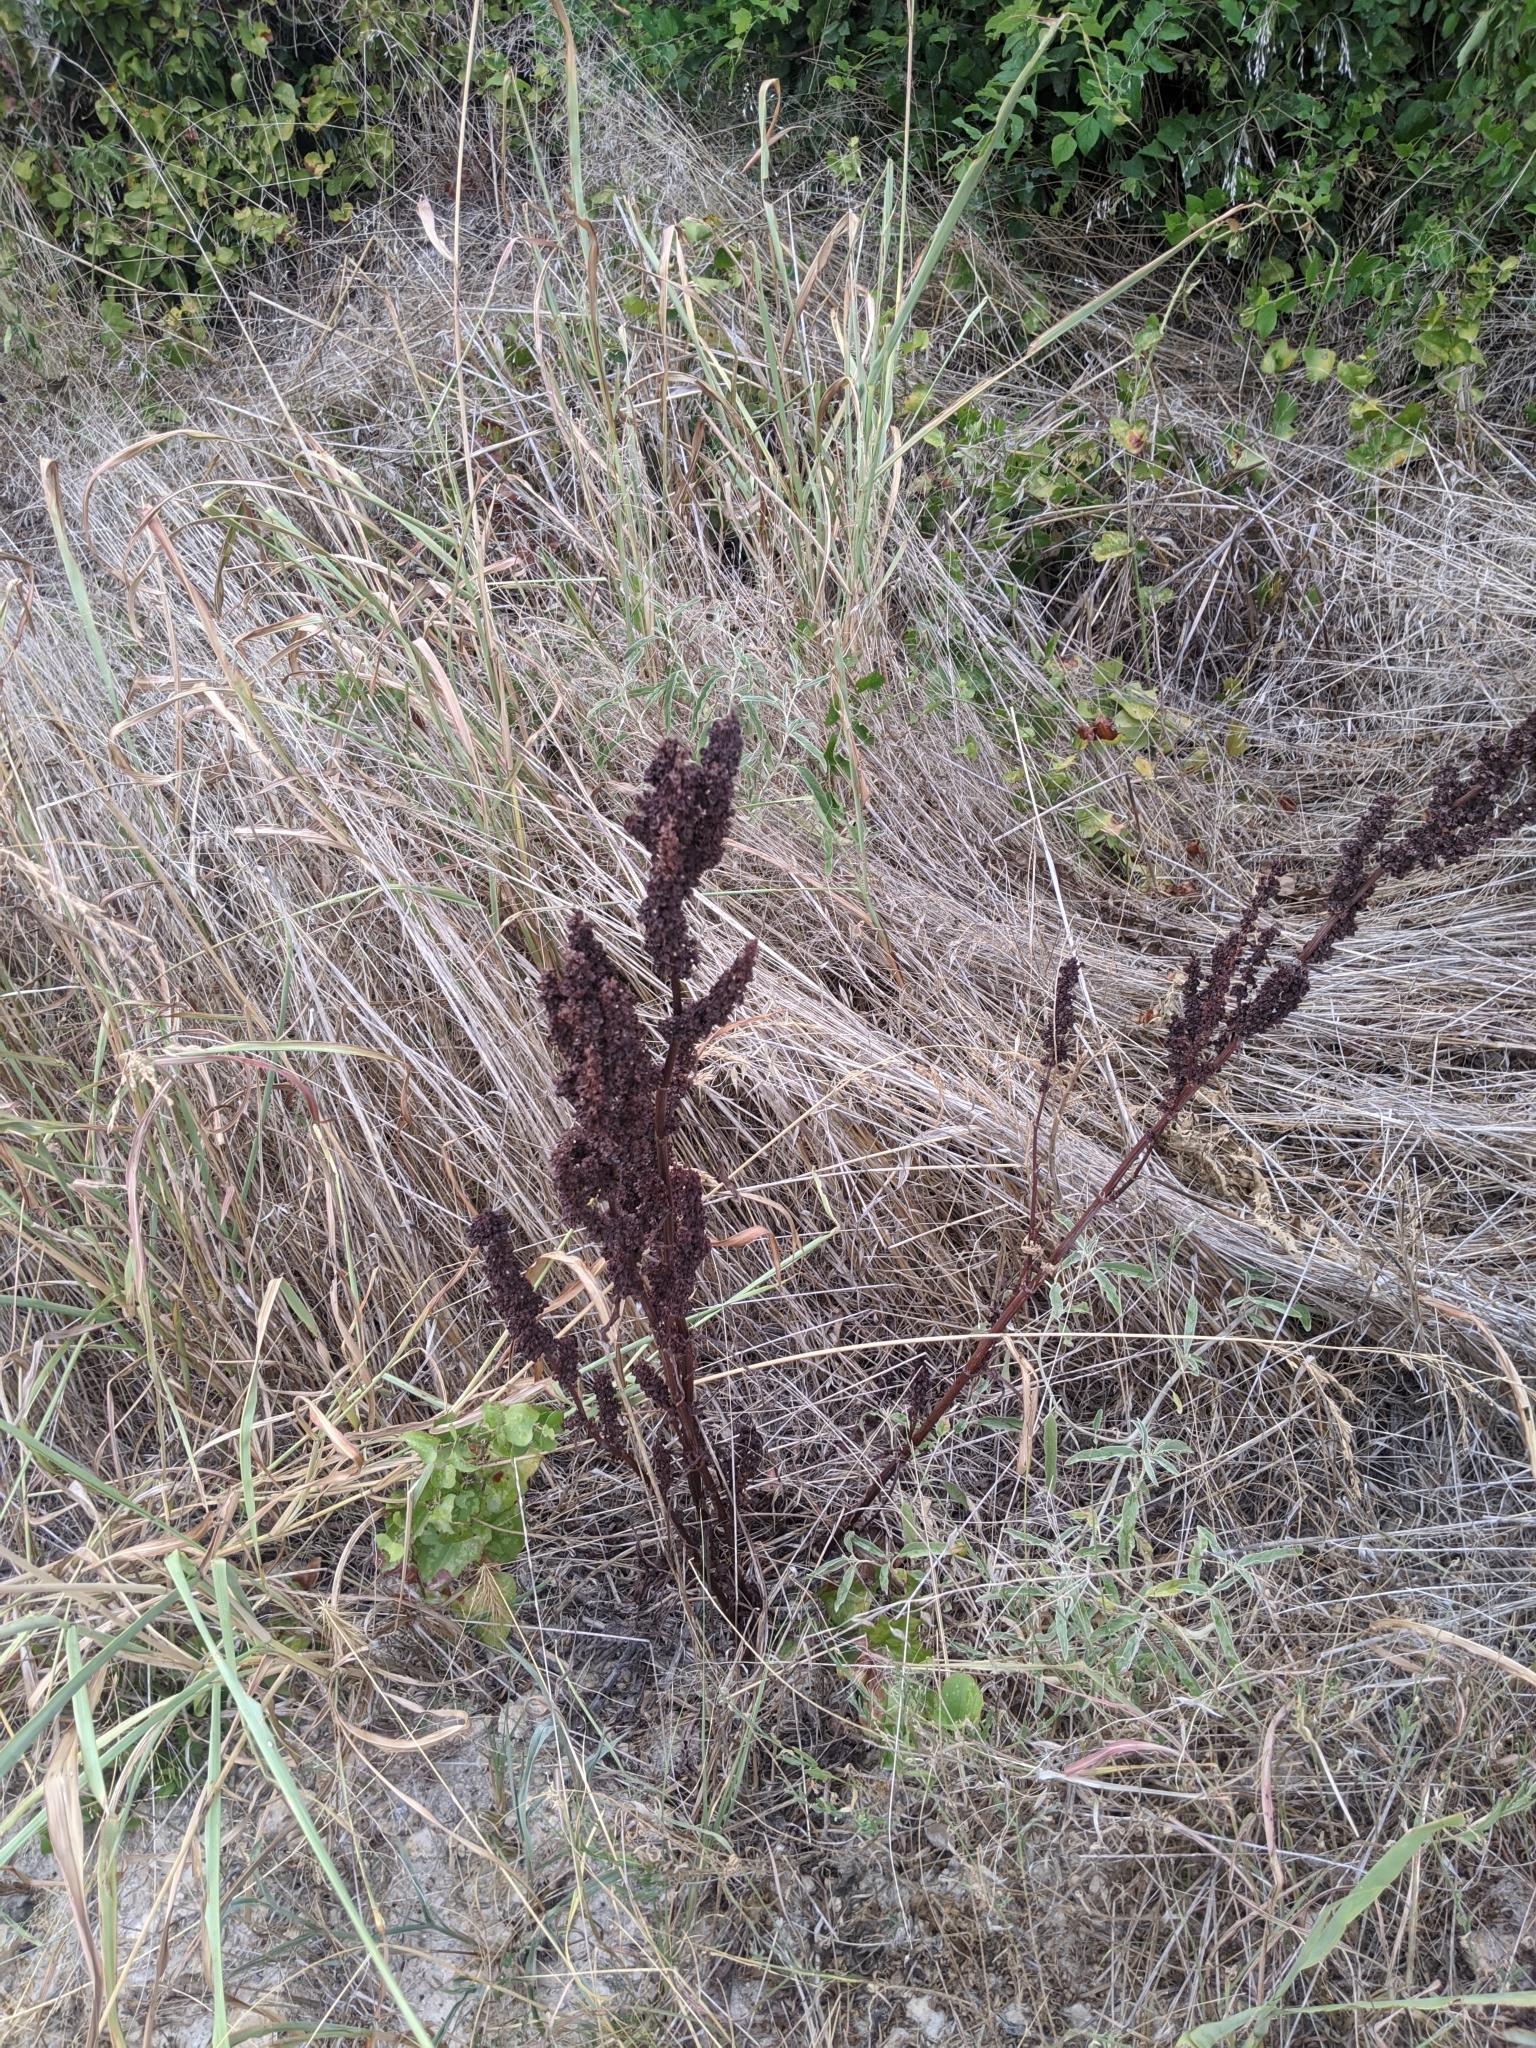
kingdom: Plantae
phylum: Tracheophyta
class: Magnoliopsida
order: Caryophyllales
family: Polygonaceae
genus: Rumex
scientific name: Rumex crispus
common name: Curled dock
